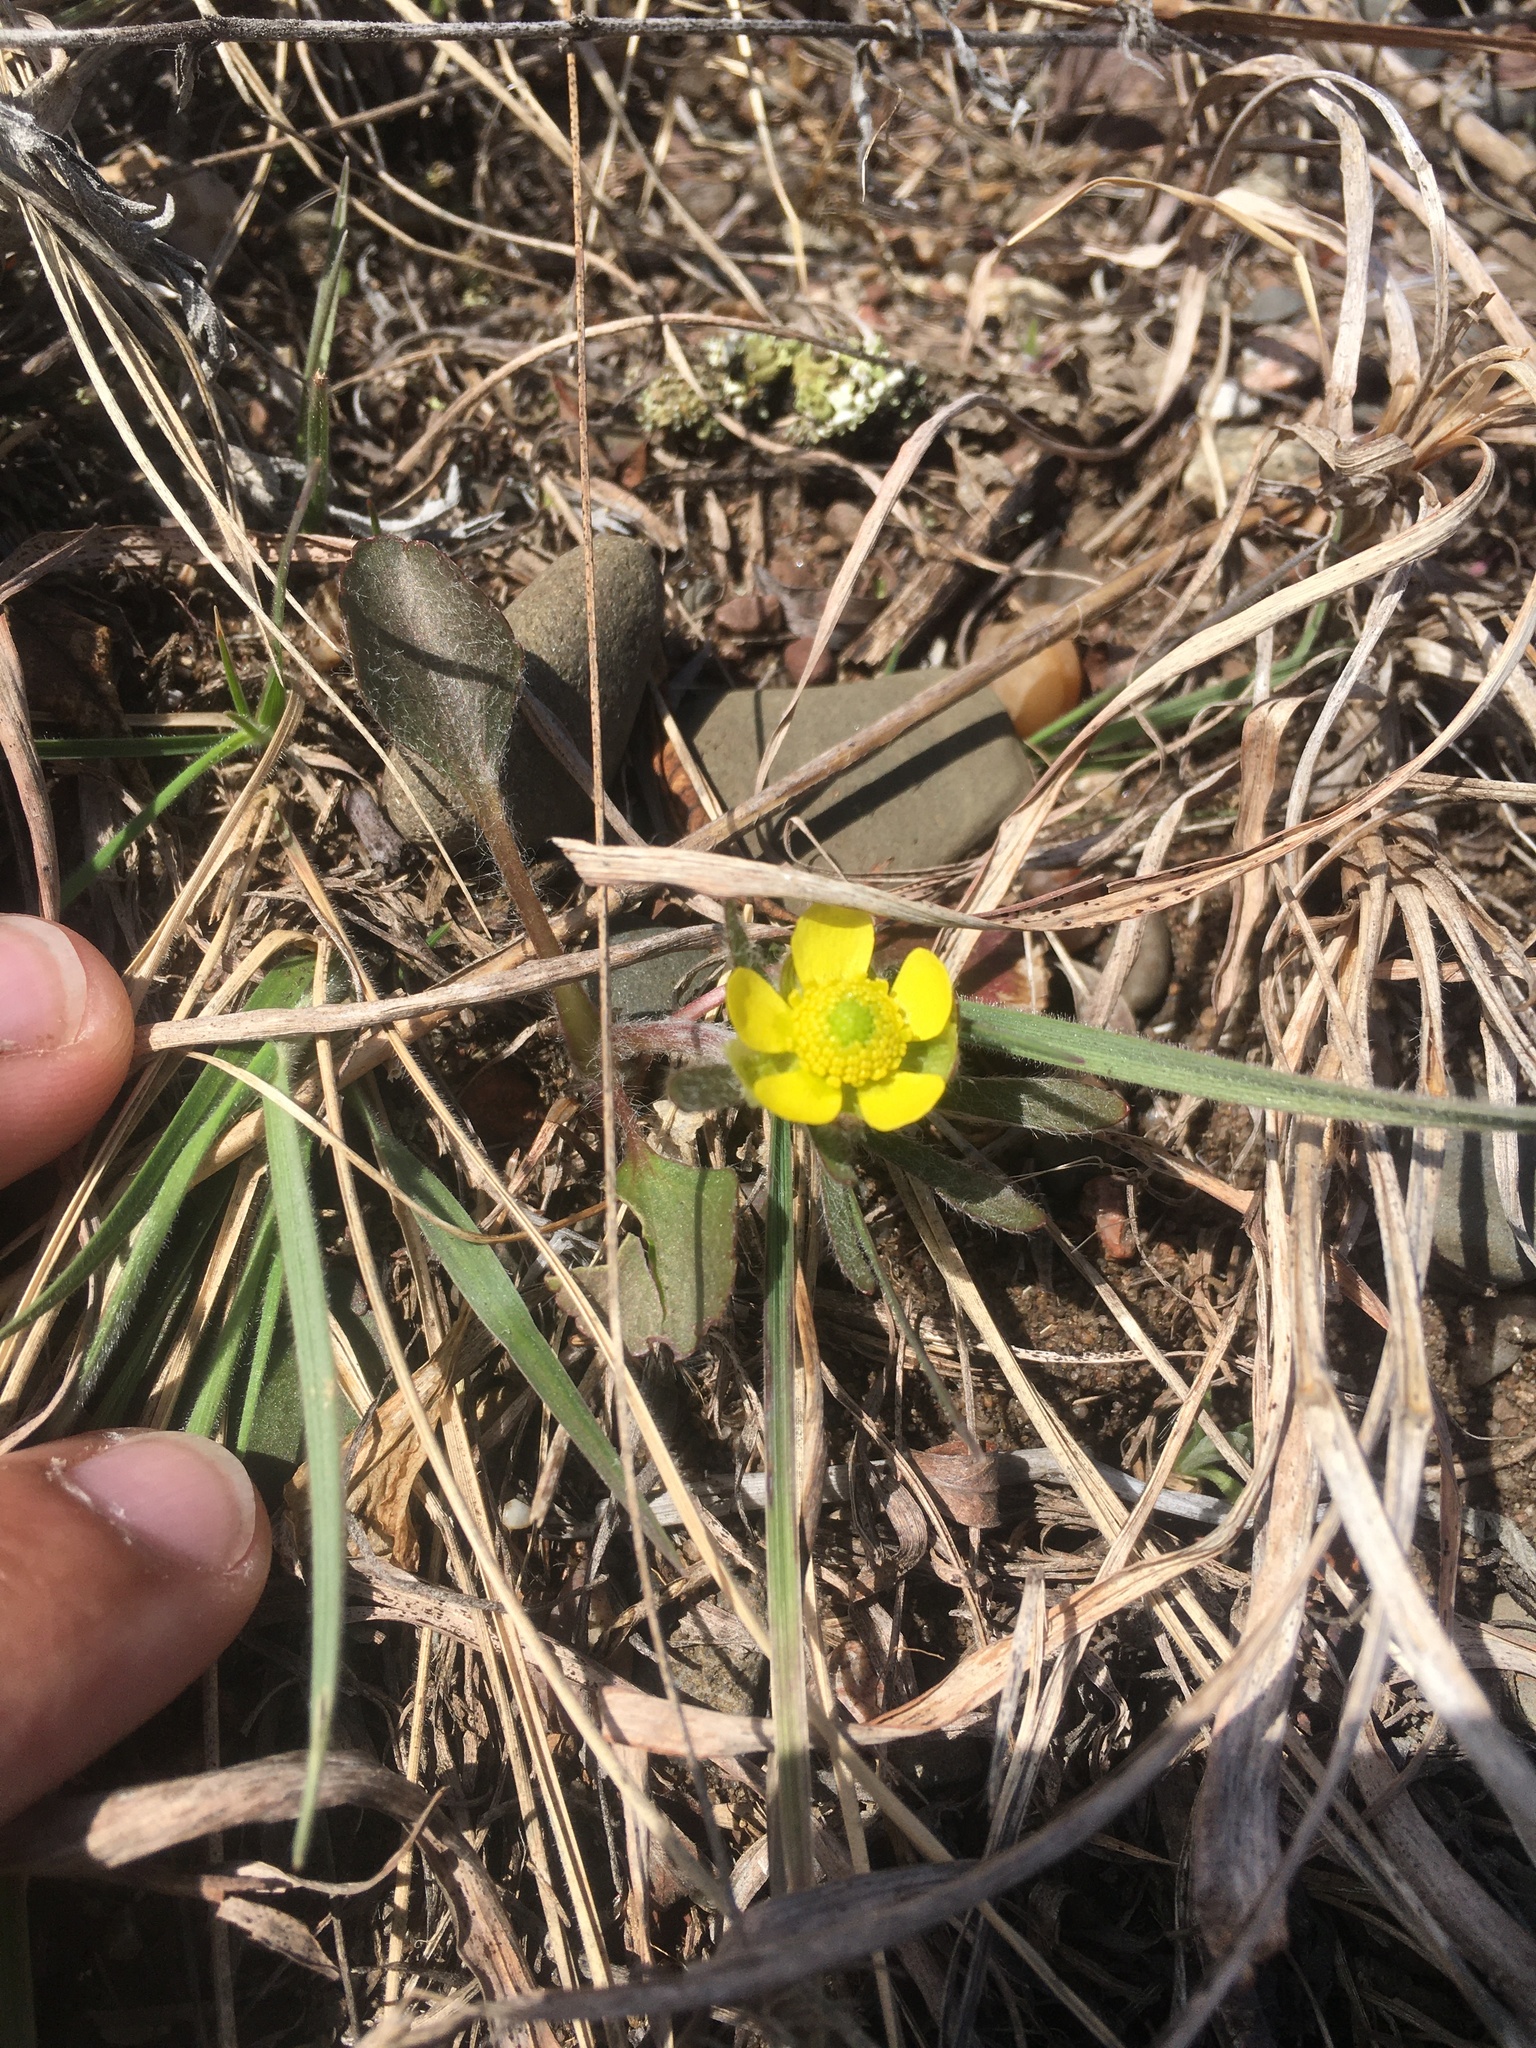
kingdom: Plantae
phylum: Tracheophyta
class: Magnoliopsida
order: Ranunculales
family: Ranunculaceae
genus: Ranunculus
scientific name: Ranunculus rhomboideus
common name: Prairie buttercup
